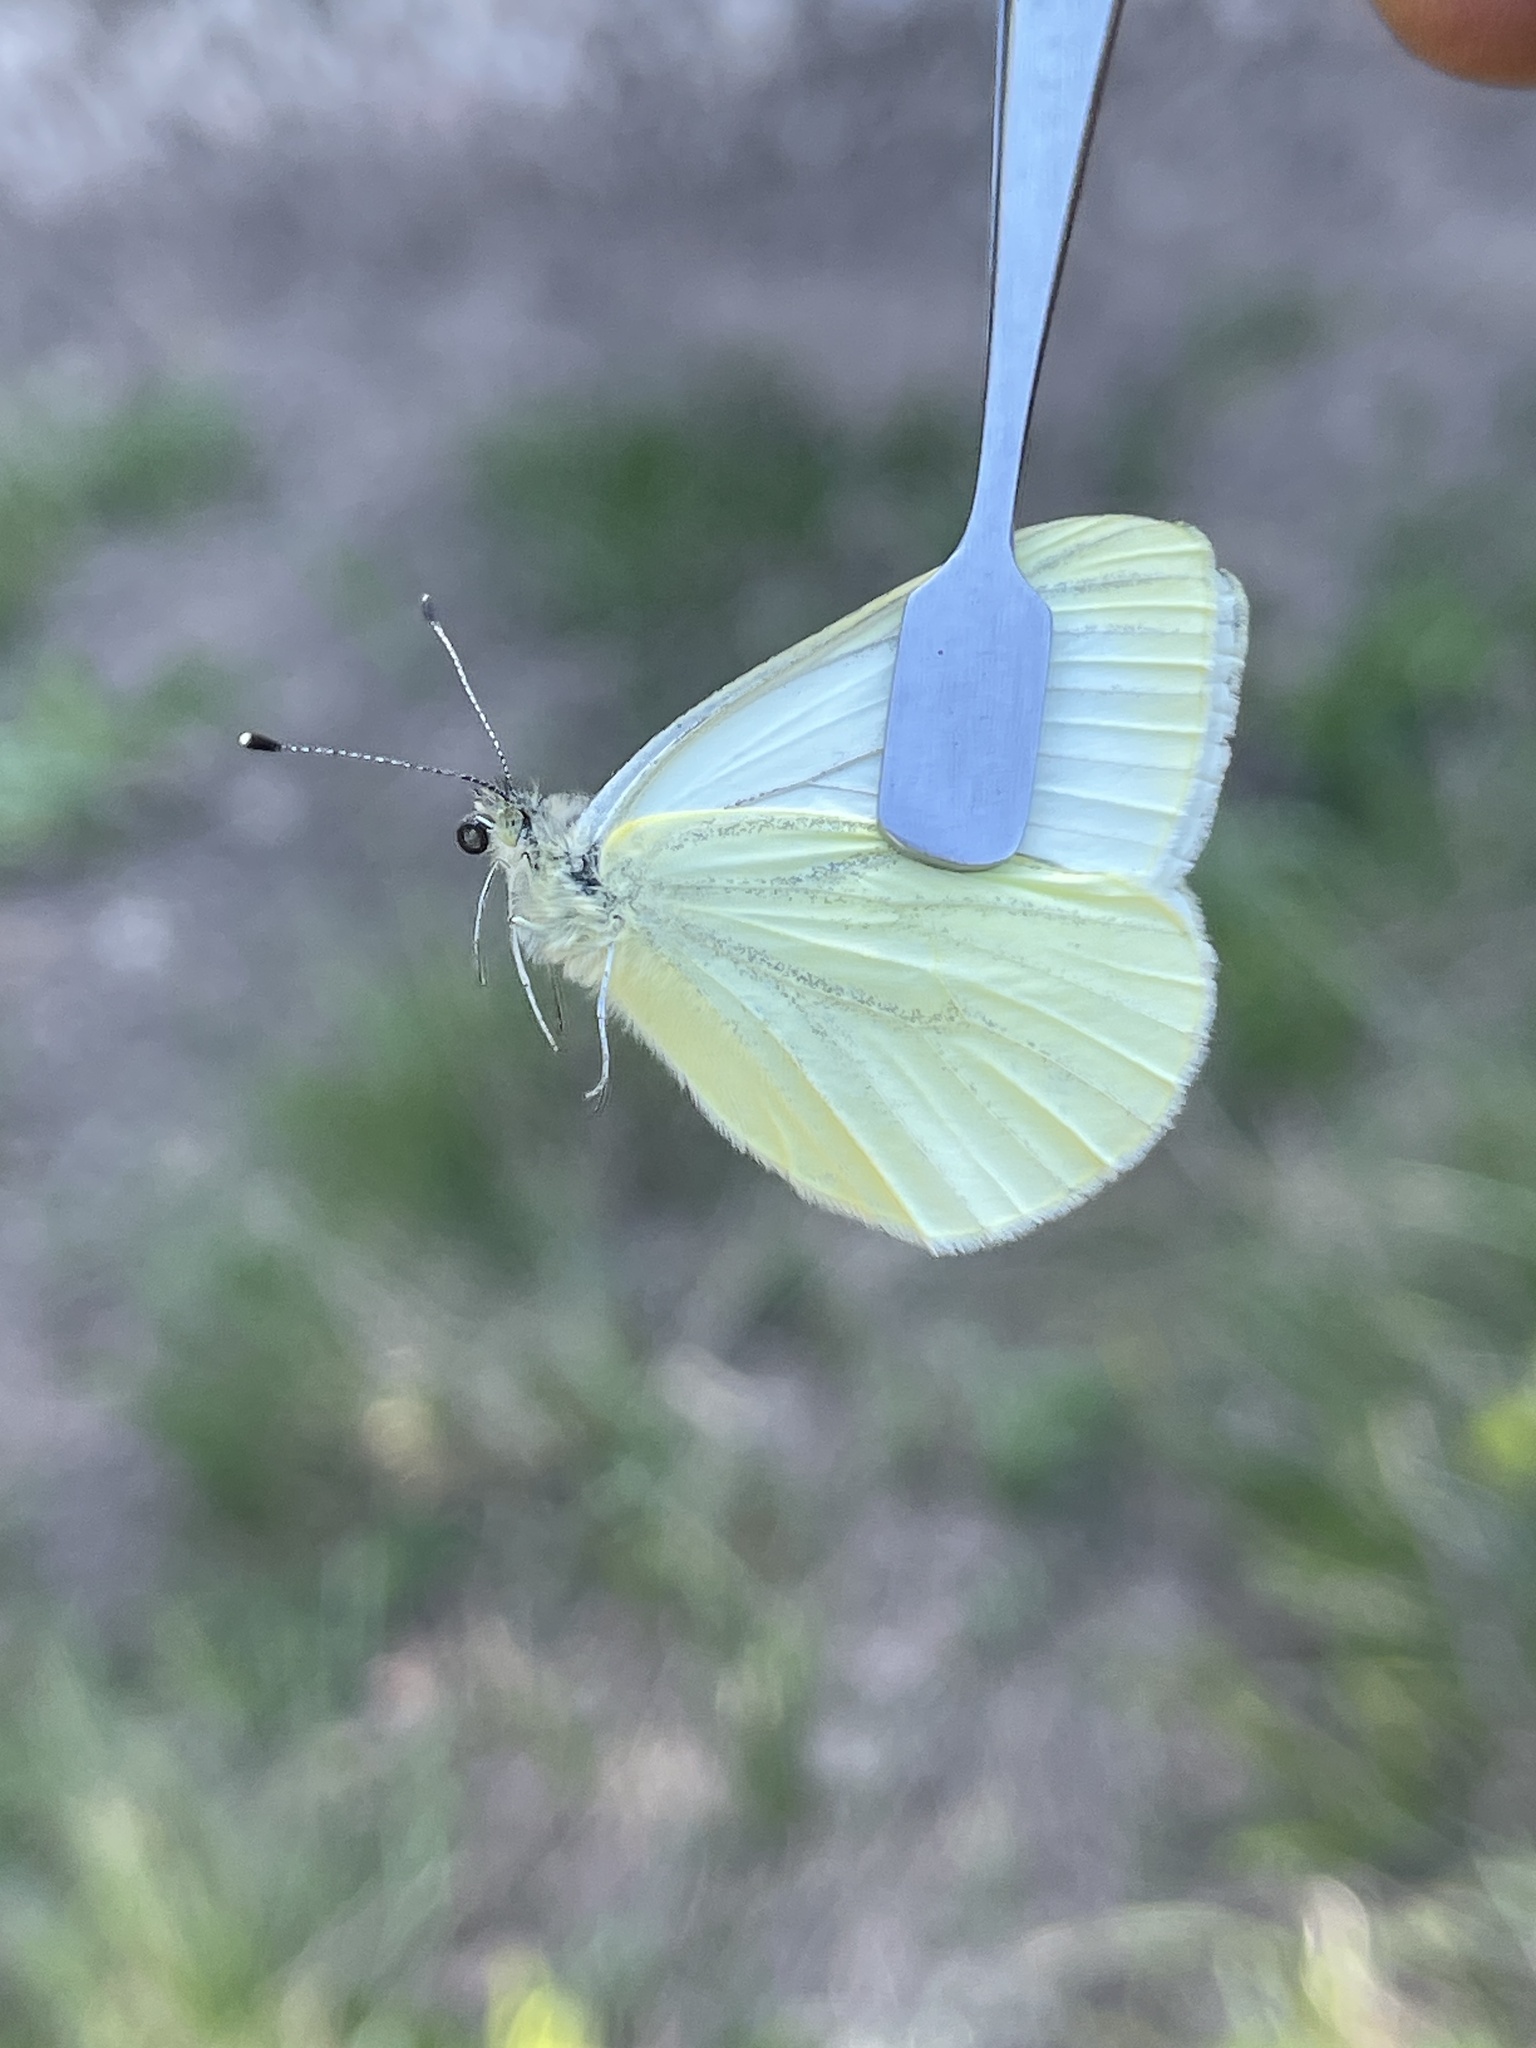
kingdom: Animalia
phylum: Arthropoda
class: Insecta
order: Lepidoptera
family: Pieridae
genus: Pieris
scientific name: Pieris marginalis
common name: Margined white
